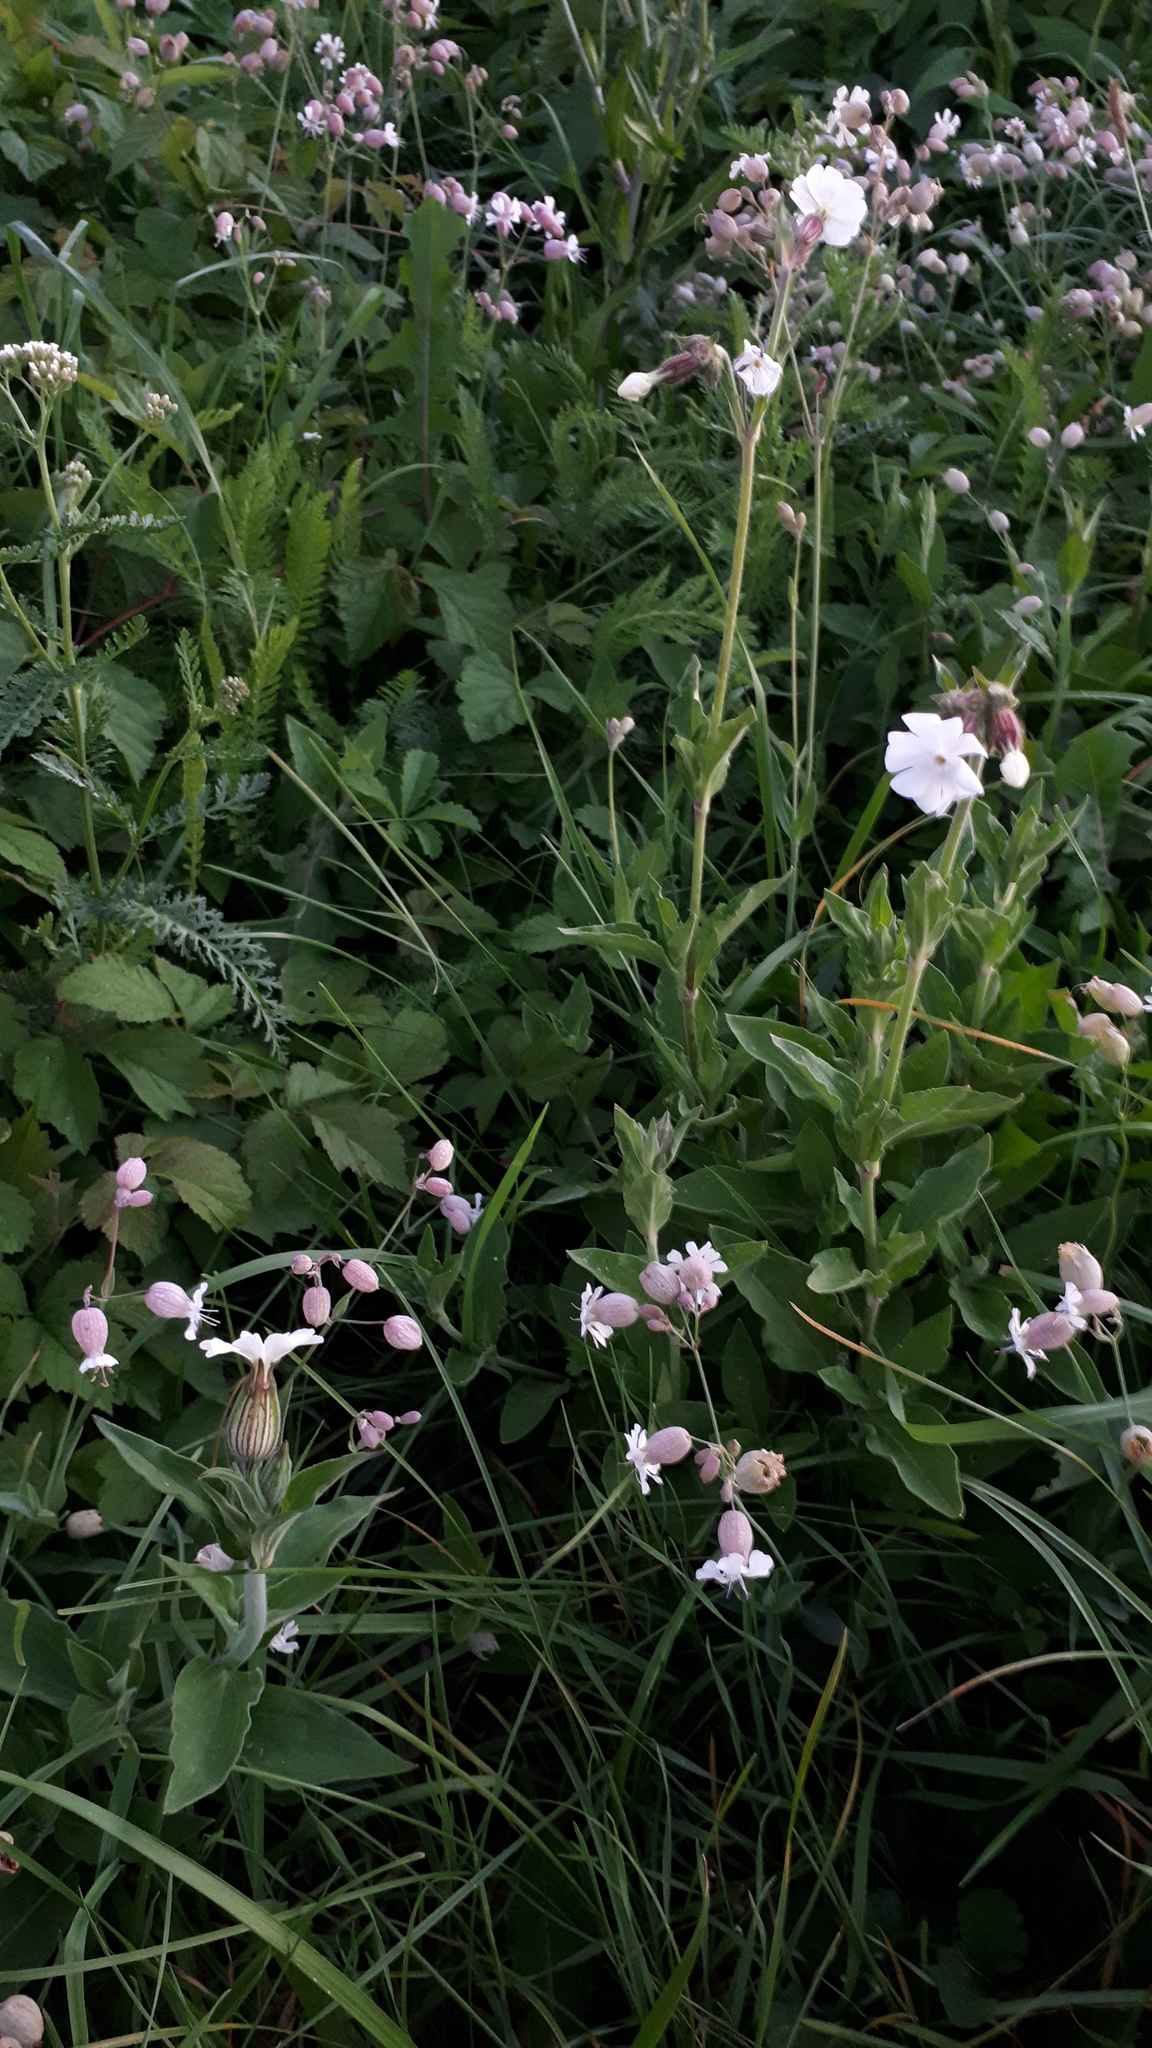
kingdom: Plantae
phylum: Tracheophyta
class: Magnoliopsida
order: Caryophyllales
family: Caryophyllaceae
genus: Silene
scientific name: Silene vulgaris
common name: Bladder campion
